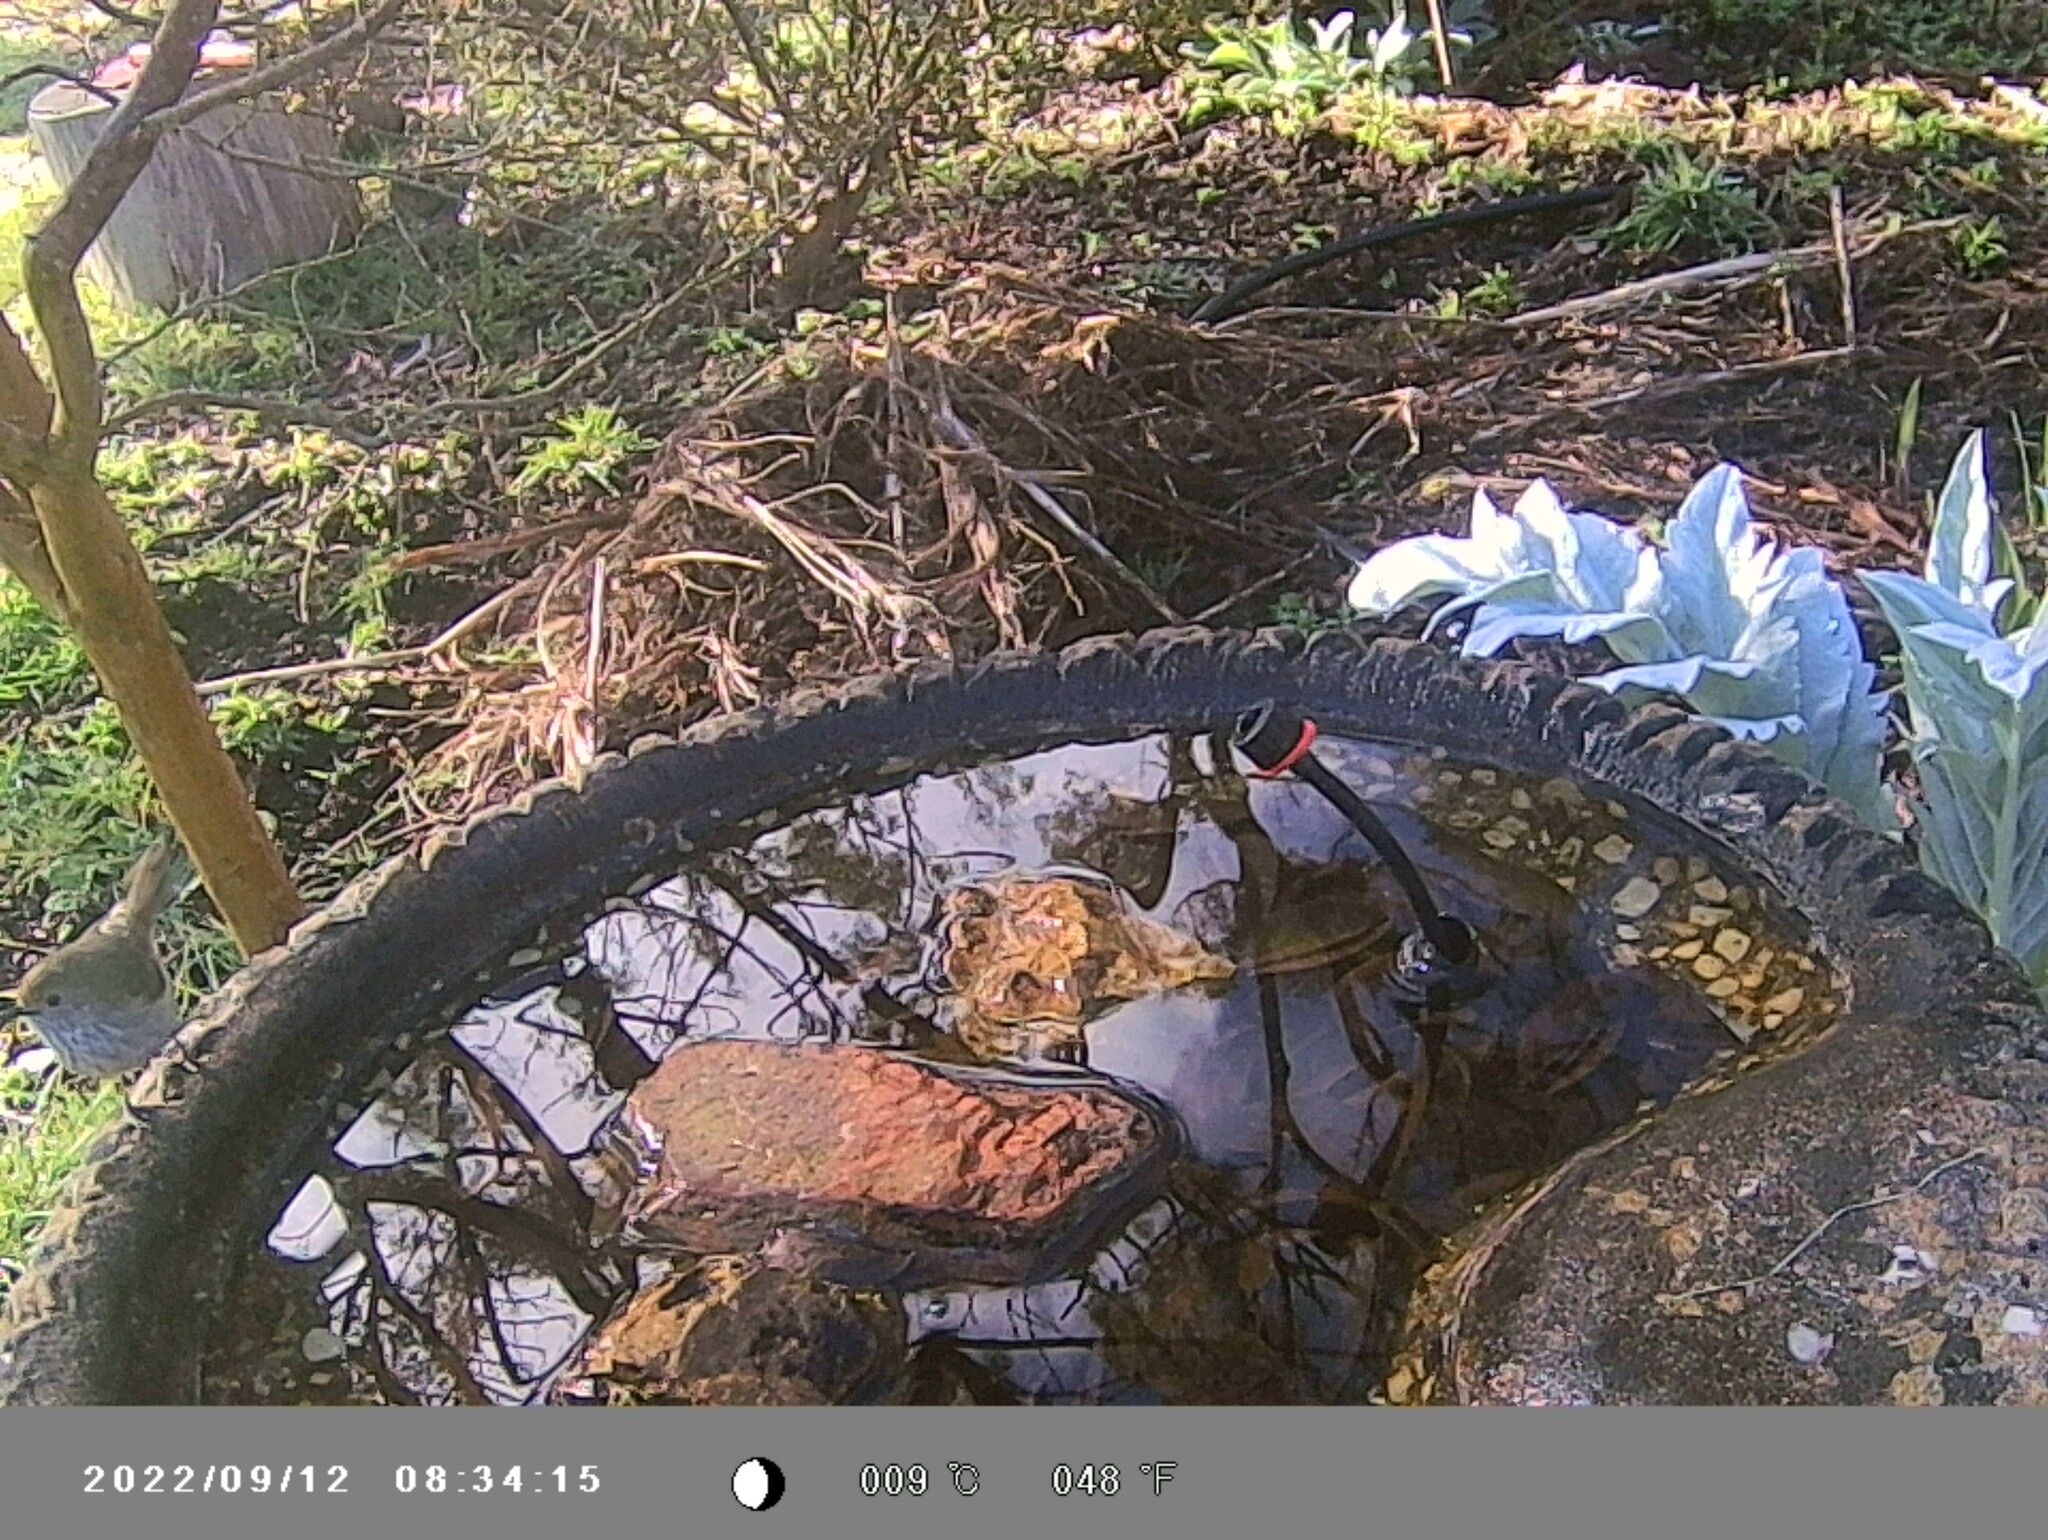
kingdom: Animalia
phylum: Chordata
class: Aves
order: Passeriformes
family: Acanthizidae
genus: Acanthiza
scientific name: Acanthiza pusilla
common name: Brown thornbill
